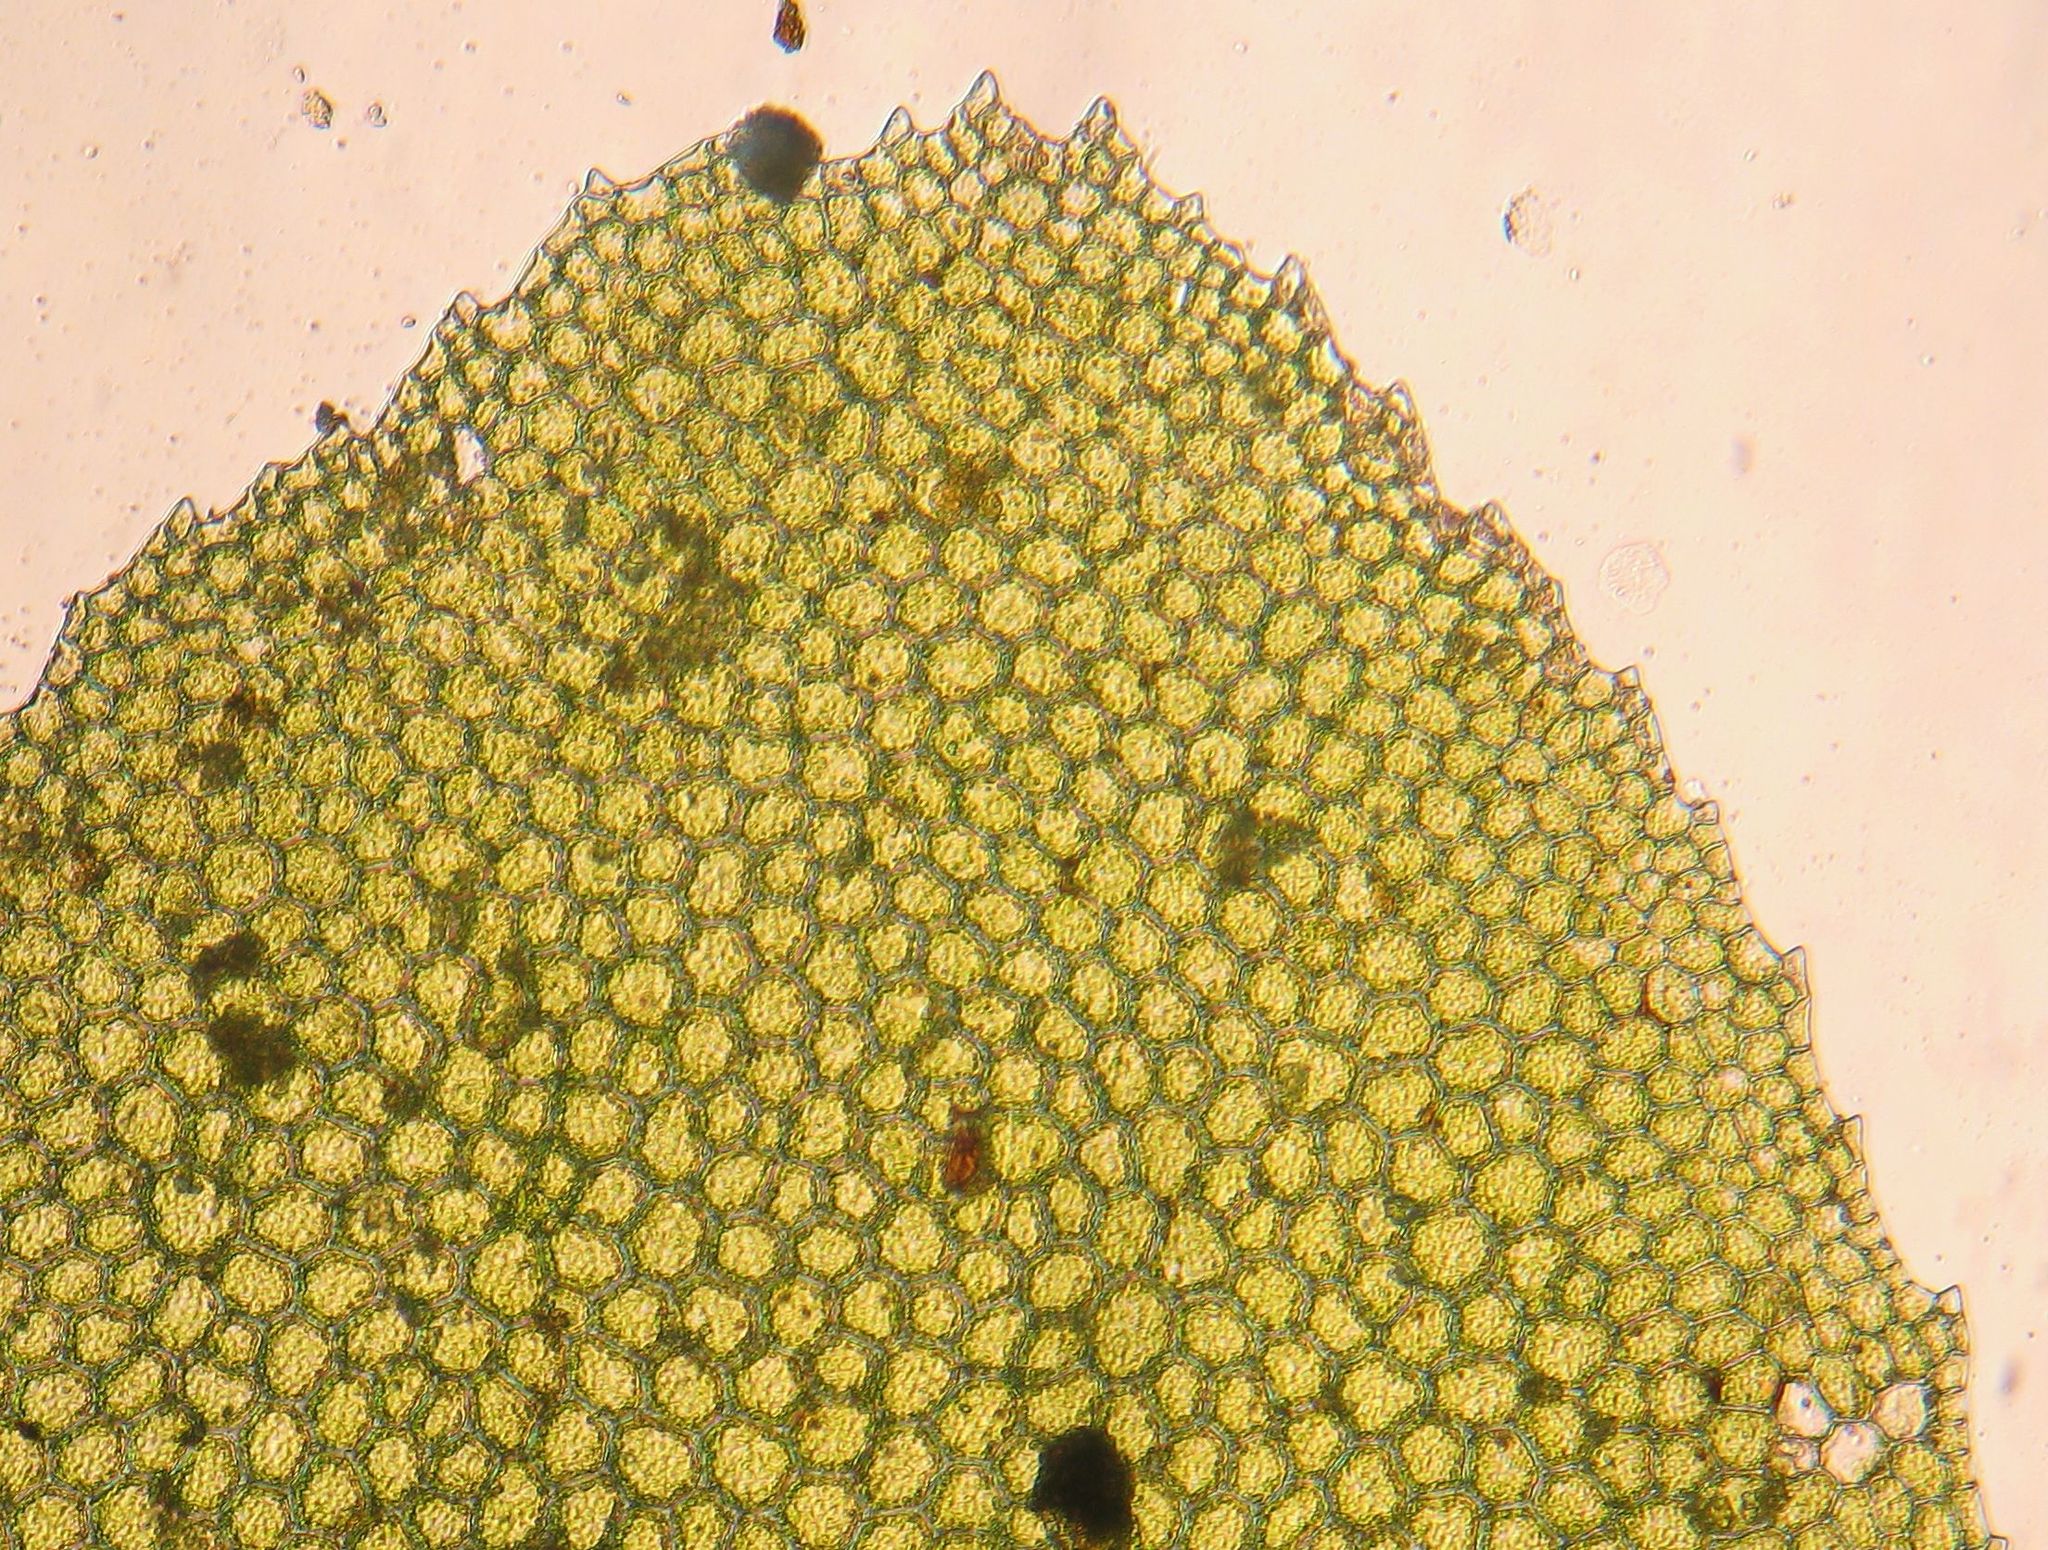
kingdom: Plantae
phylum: Bryophyta
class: Bryopsida
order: Hookeriales
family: Daltoniaceae
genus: Achrophyllum
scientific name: Achrophyllum dentatum
